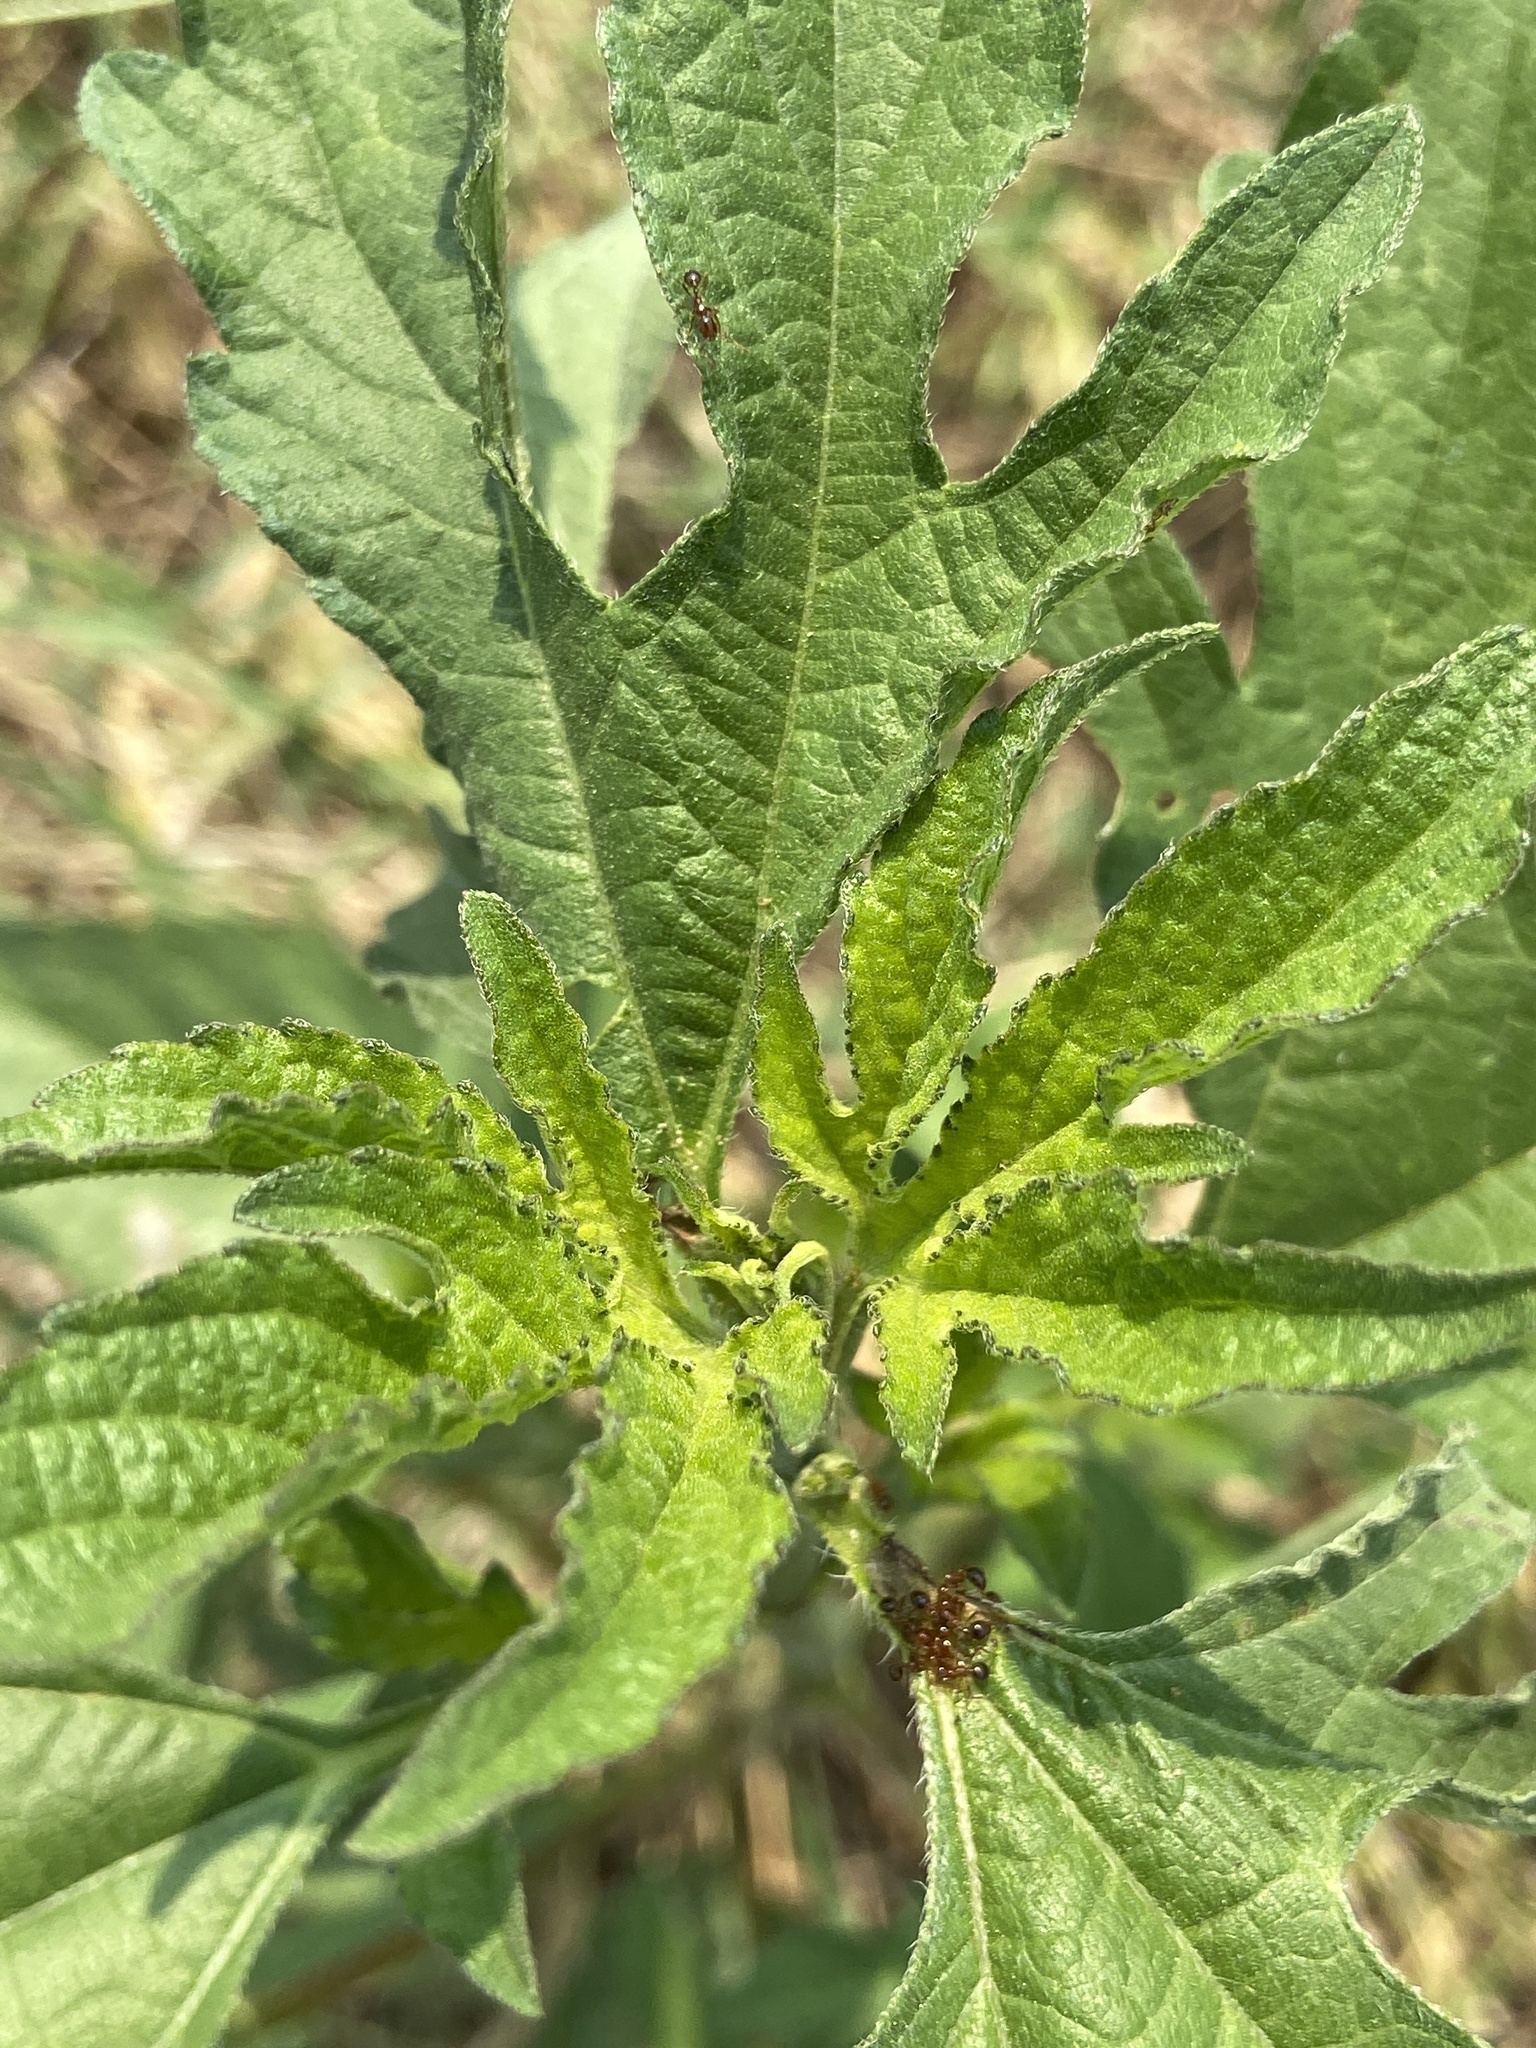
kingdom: Plantae
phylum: Tracheophyta
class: Magnoliopsida
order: Asterales
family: Asteraceae
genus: Ambrosia
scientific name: Ambrosia trifida
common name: Giant ragweed
